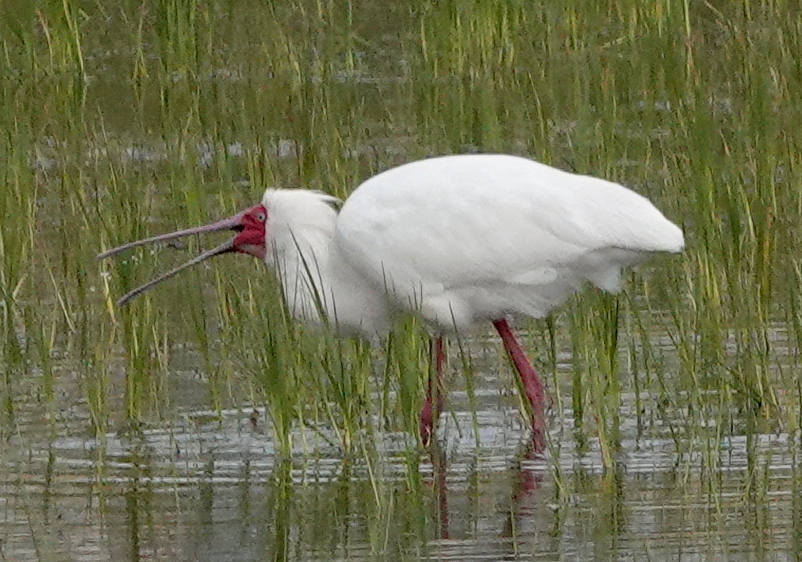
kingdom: Animalia
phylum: Chordata
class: Aves
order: Pelecaniformes
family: Threskiornithidae
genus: Platalea
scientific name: Platalea alba
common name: African spoonbill
